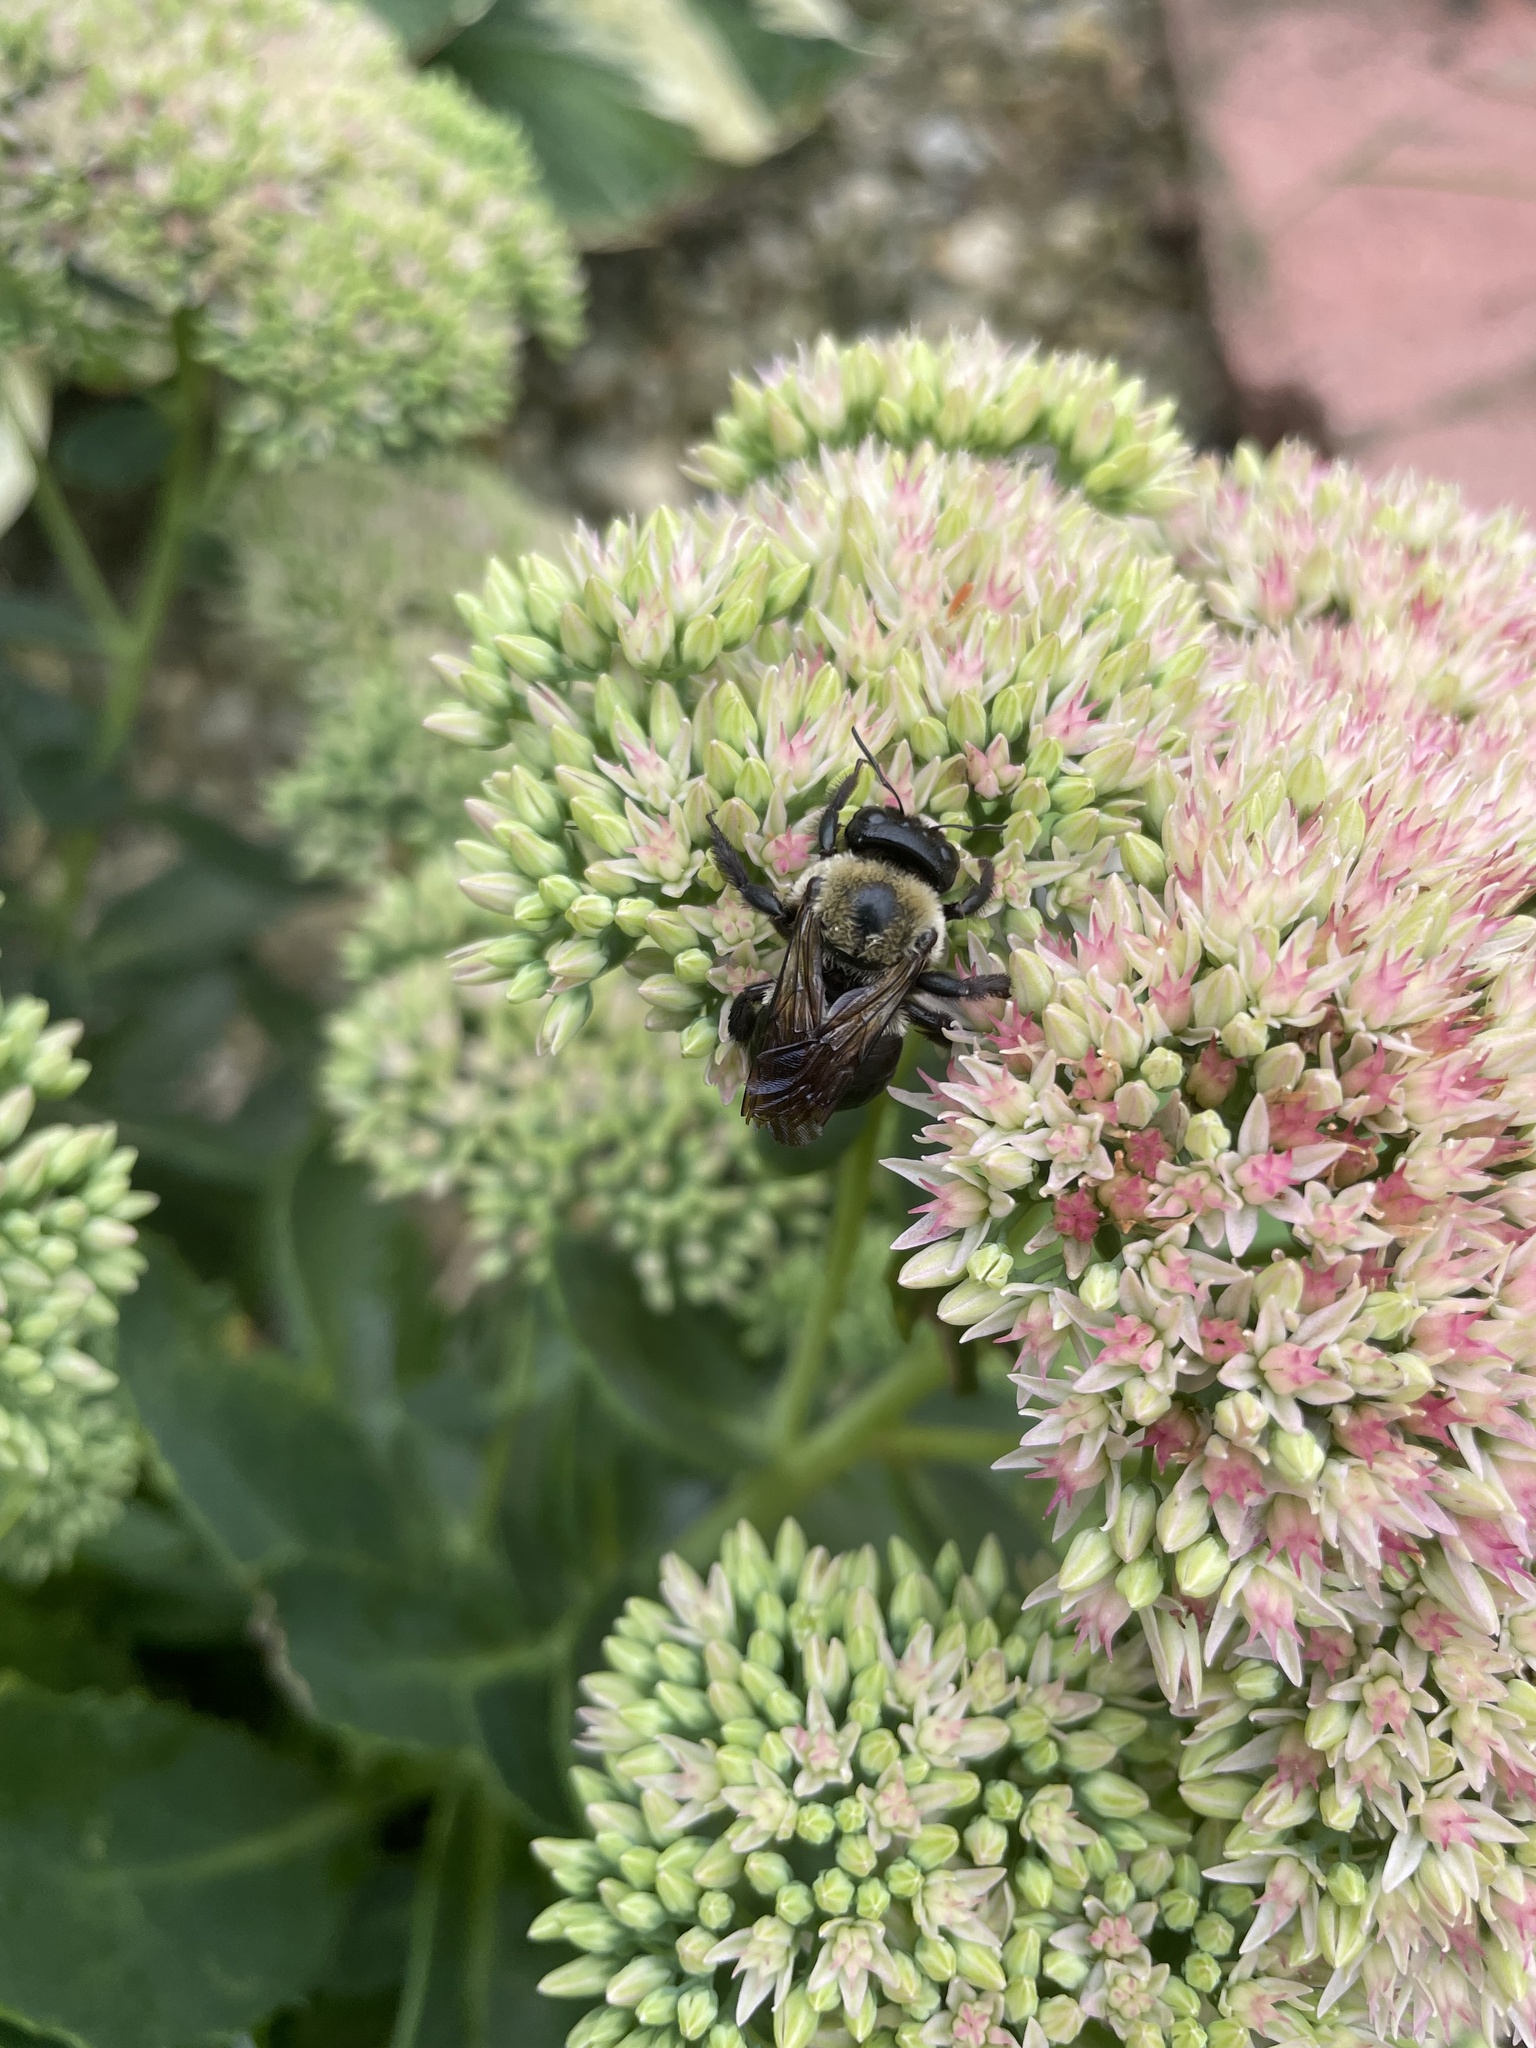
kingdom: Animalia
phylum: Arthropoda
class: Insecta
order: Hymenoptera
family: Apidae
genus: Xylocopa
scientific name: Xylocopa virginica
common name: Carpenter bee
